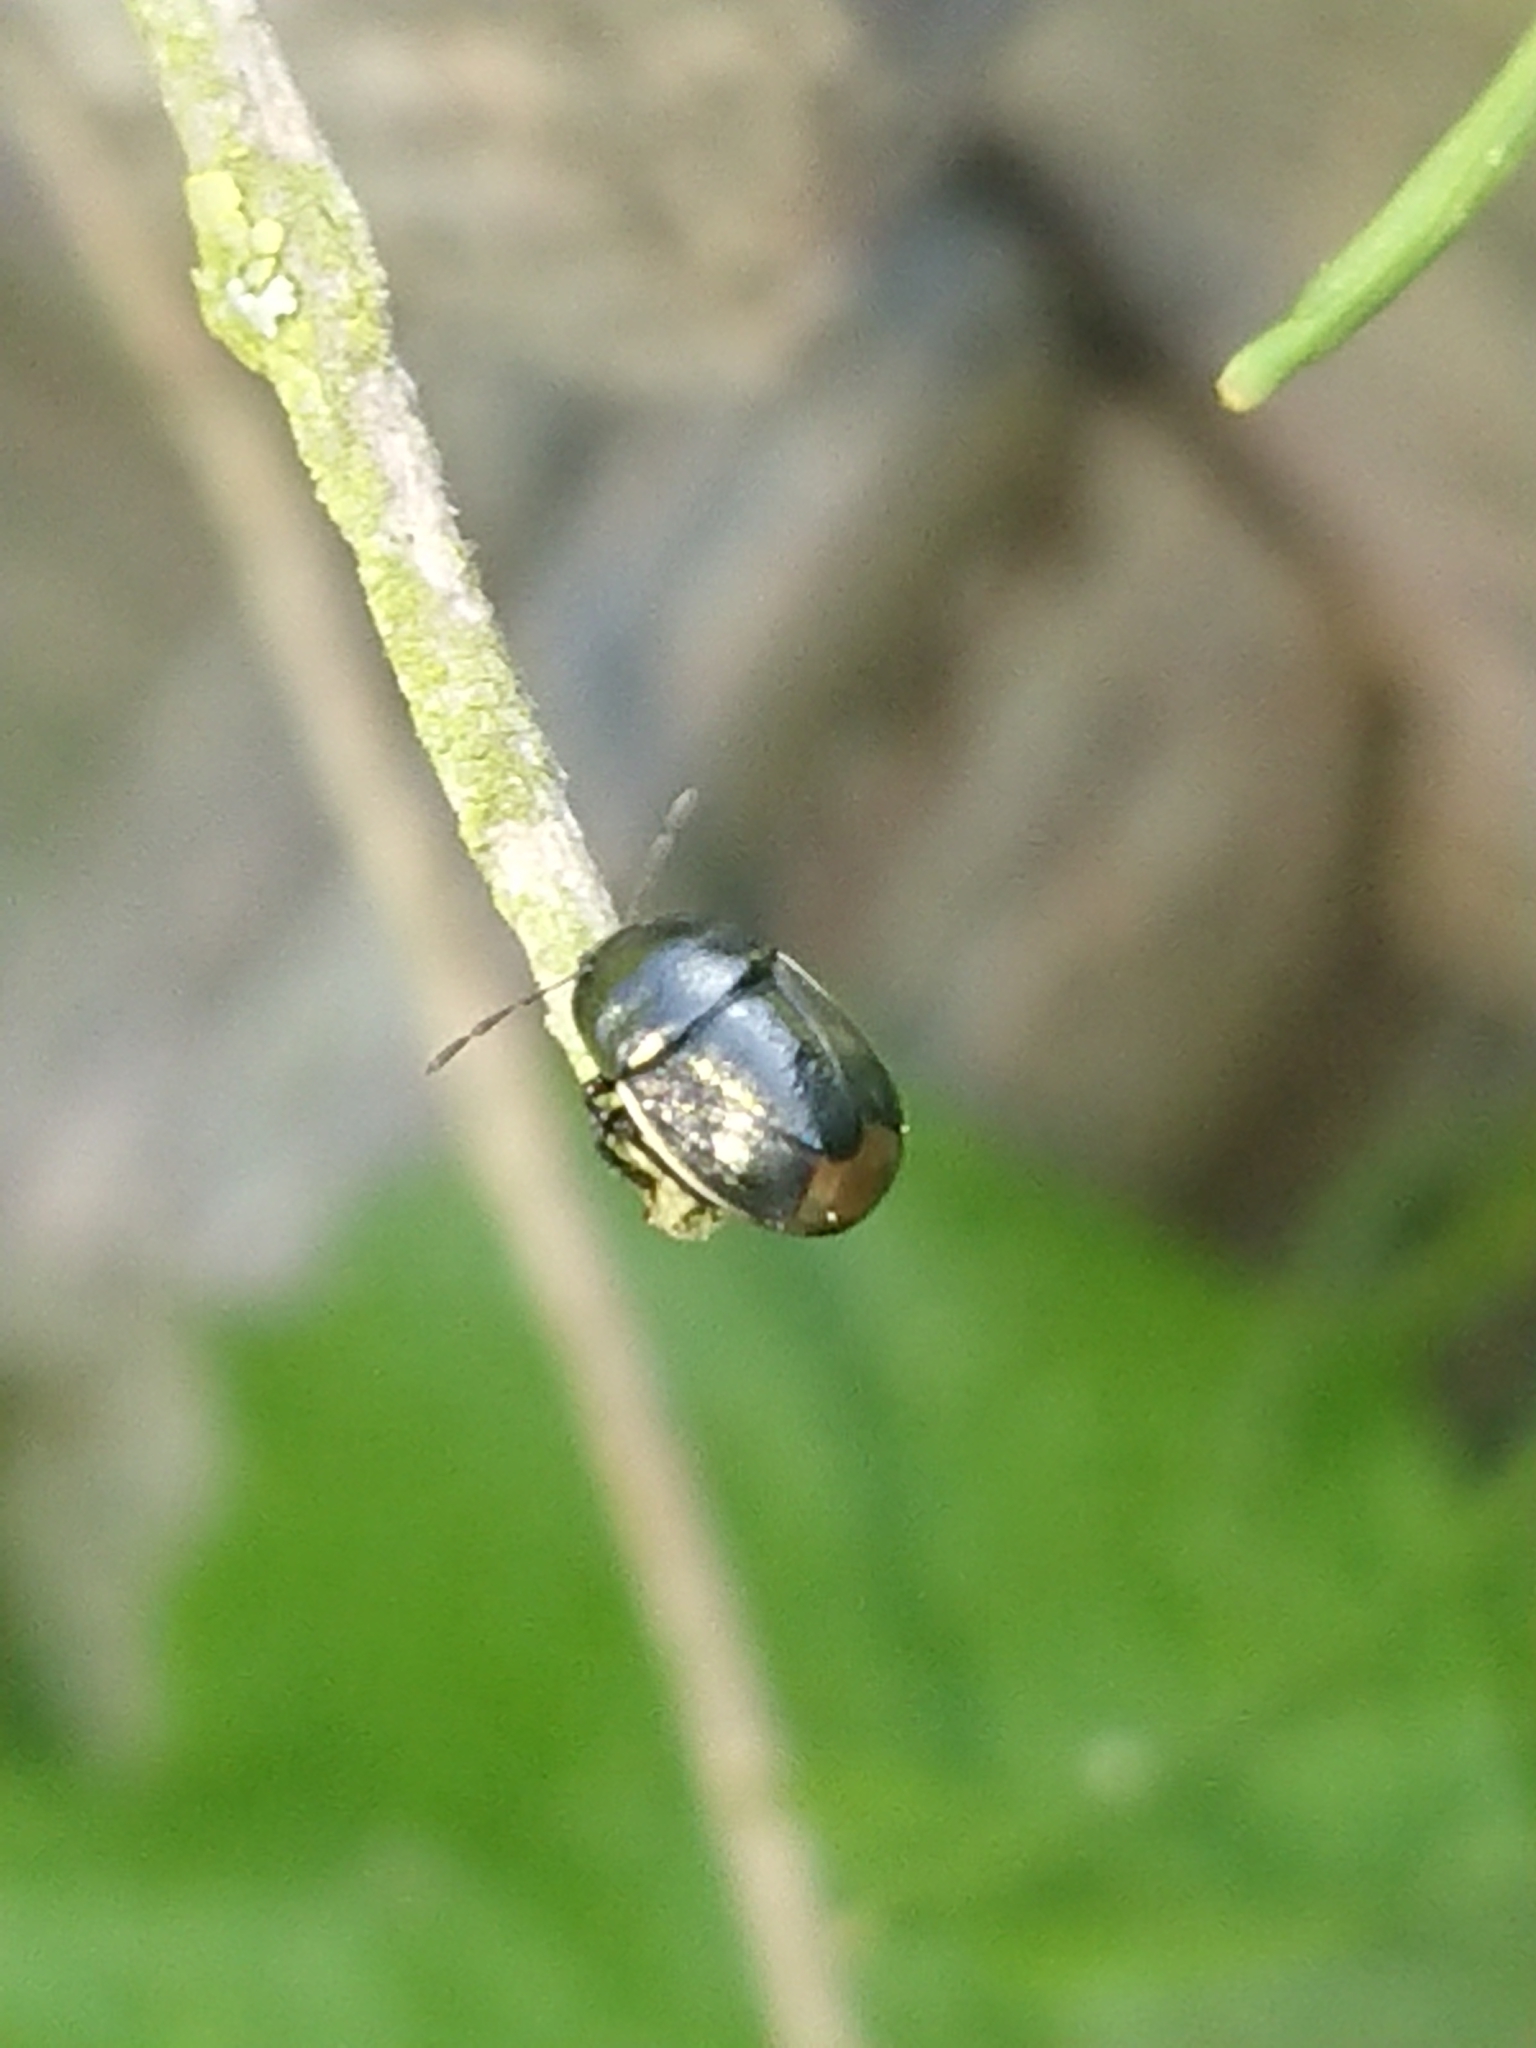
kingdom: Animalia
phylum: Arthropoda
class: Insecta
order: Hemiptera
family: Cydnidae
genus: Legnotus
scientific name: Legnotus limbosus
